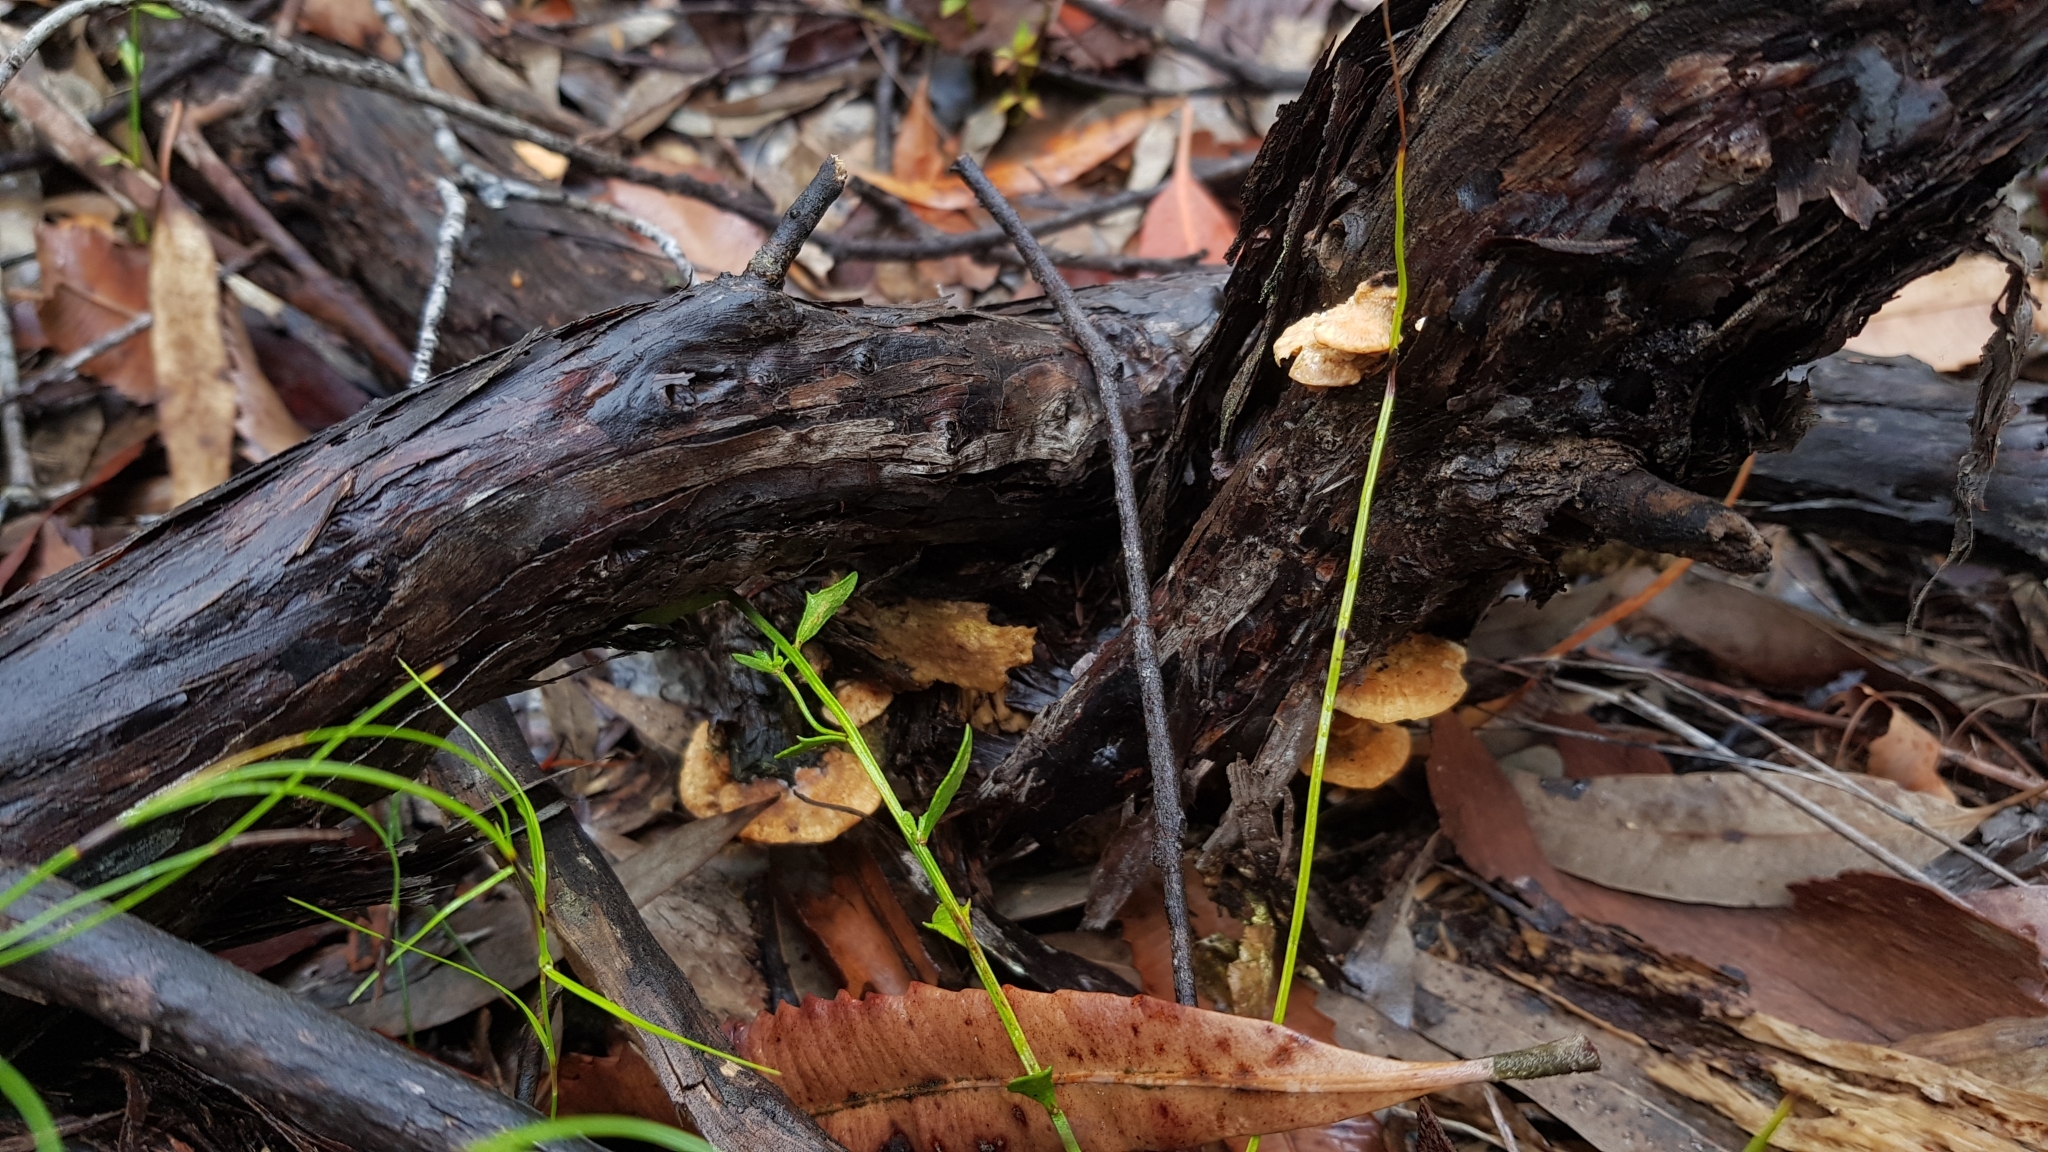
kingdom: Fungi
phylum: Basidiomycota
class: Agaricomycetes
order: Polyporales
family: Polyporaceae
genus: Truncospora
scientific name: Truncospora ochroleuca
